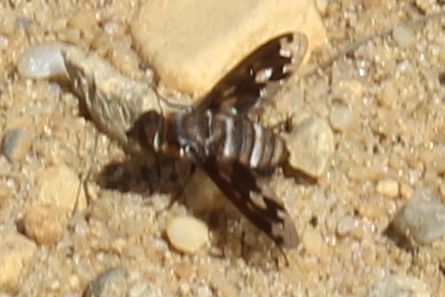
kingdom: Animalia
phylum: Arthropoda
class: Insecta
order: Diptera
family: Bombyliidae
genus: Exoprosopa
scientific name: Exoprosopa fascipennis
